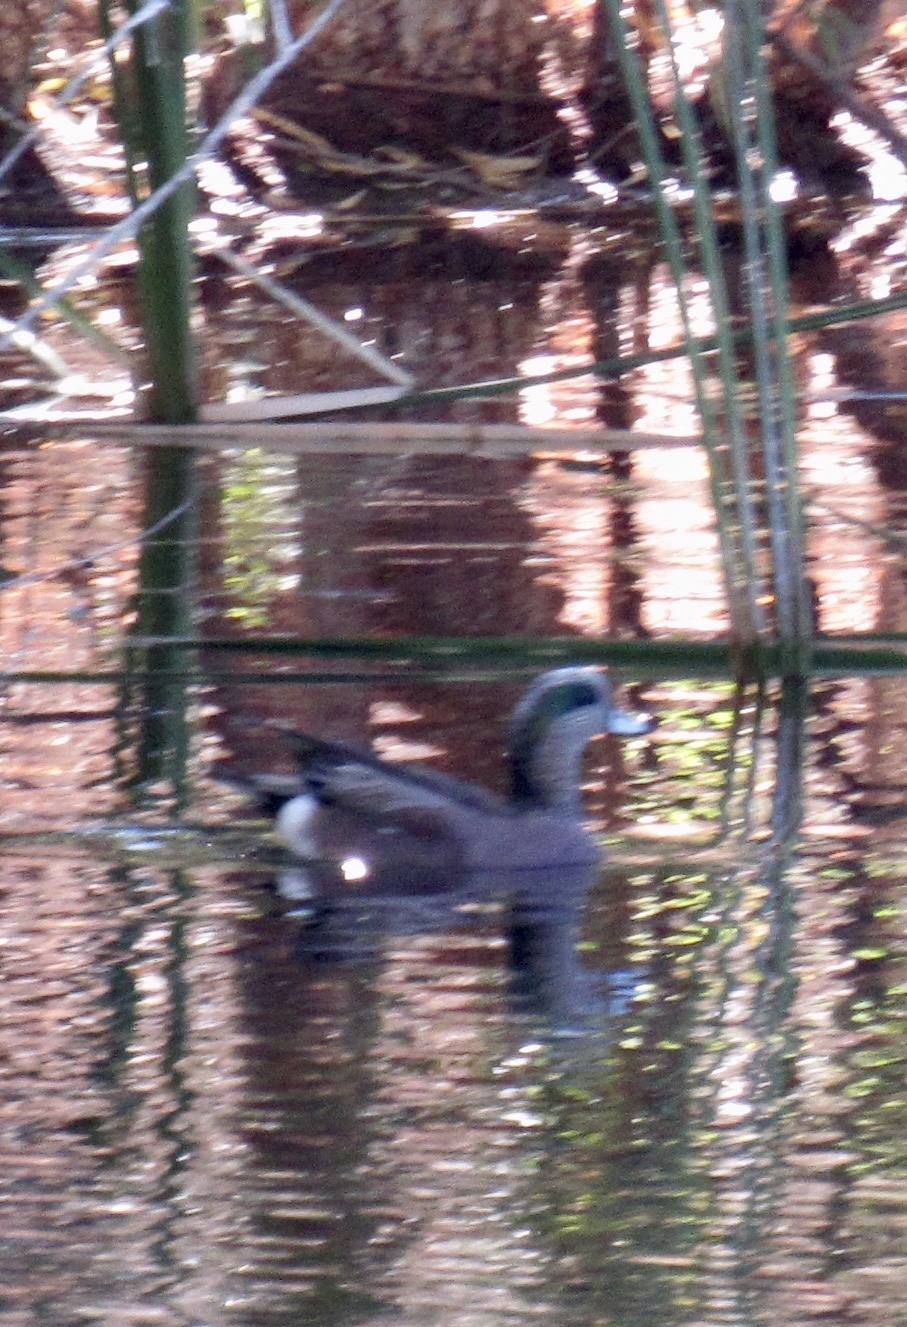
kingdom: Animalia
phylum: Chordata
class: Aves
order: Anseriformes
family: Anatidae
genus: Mareca
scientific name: Mareca americana
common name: American wigeon
